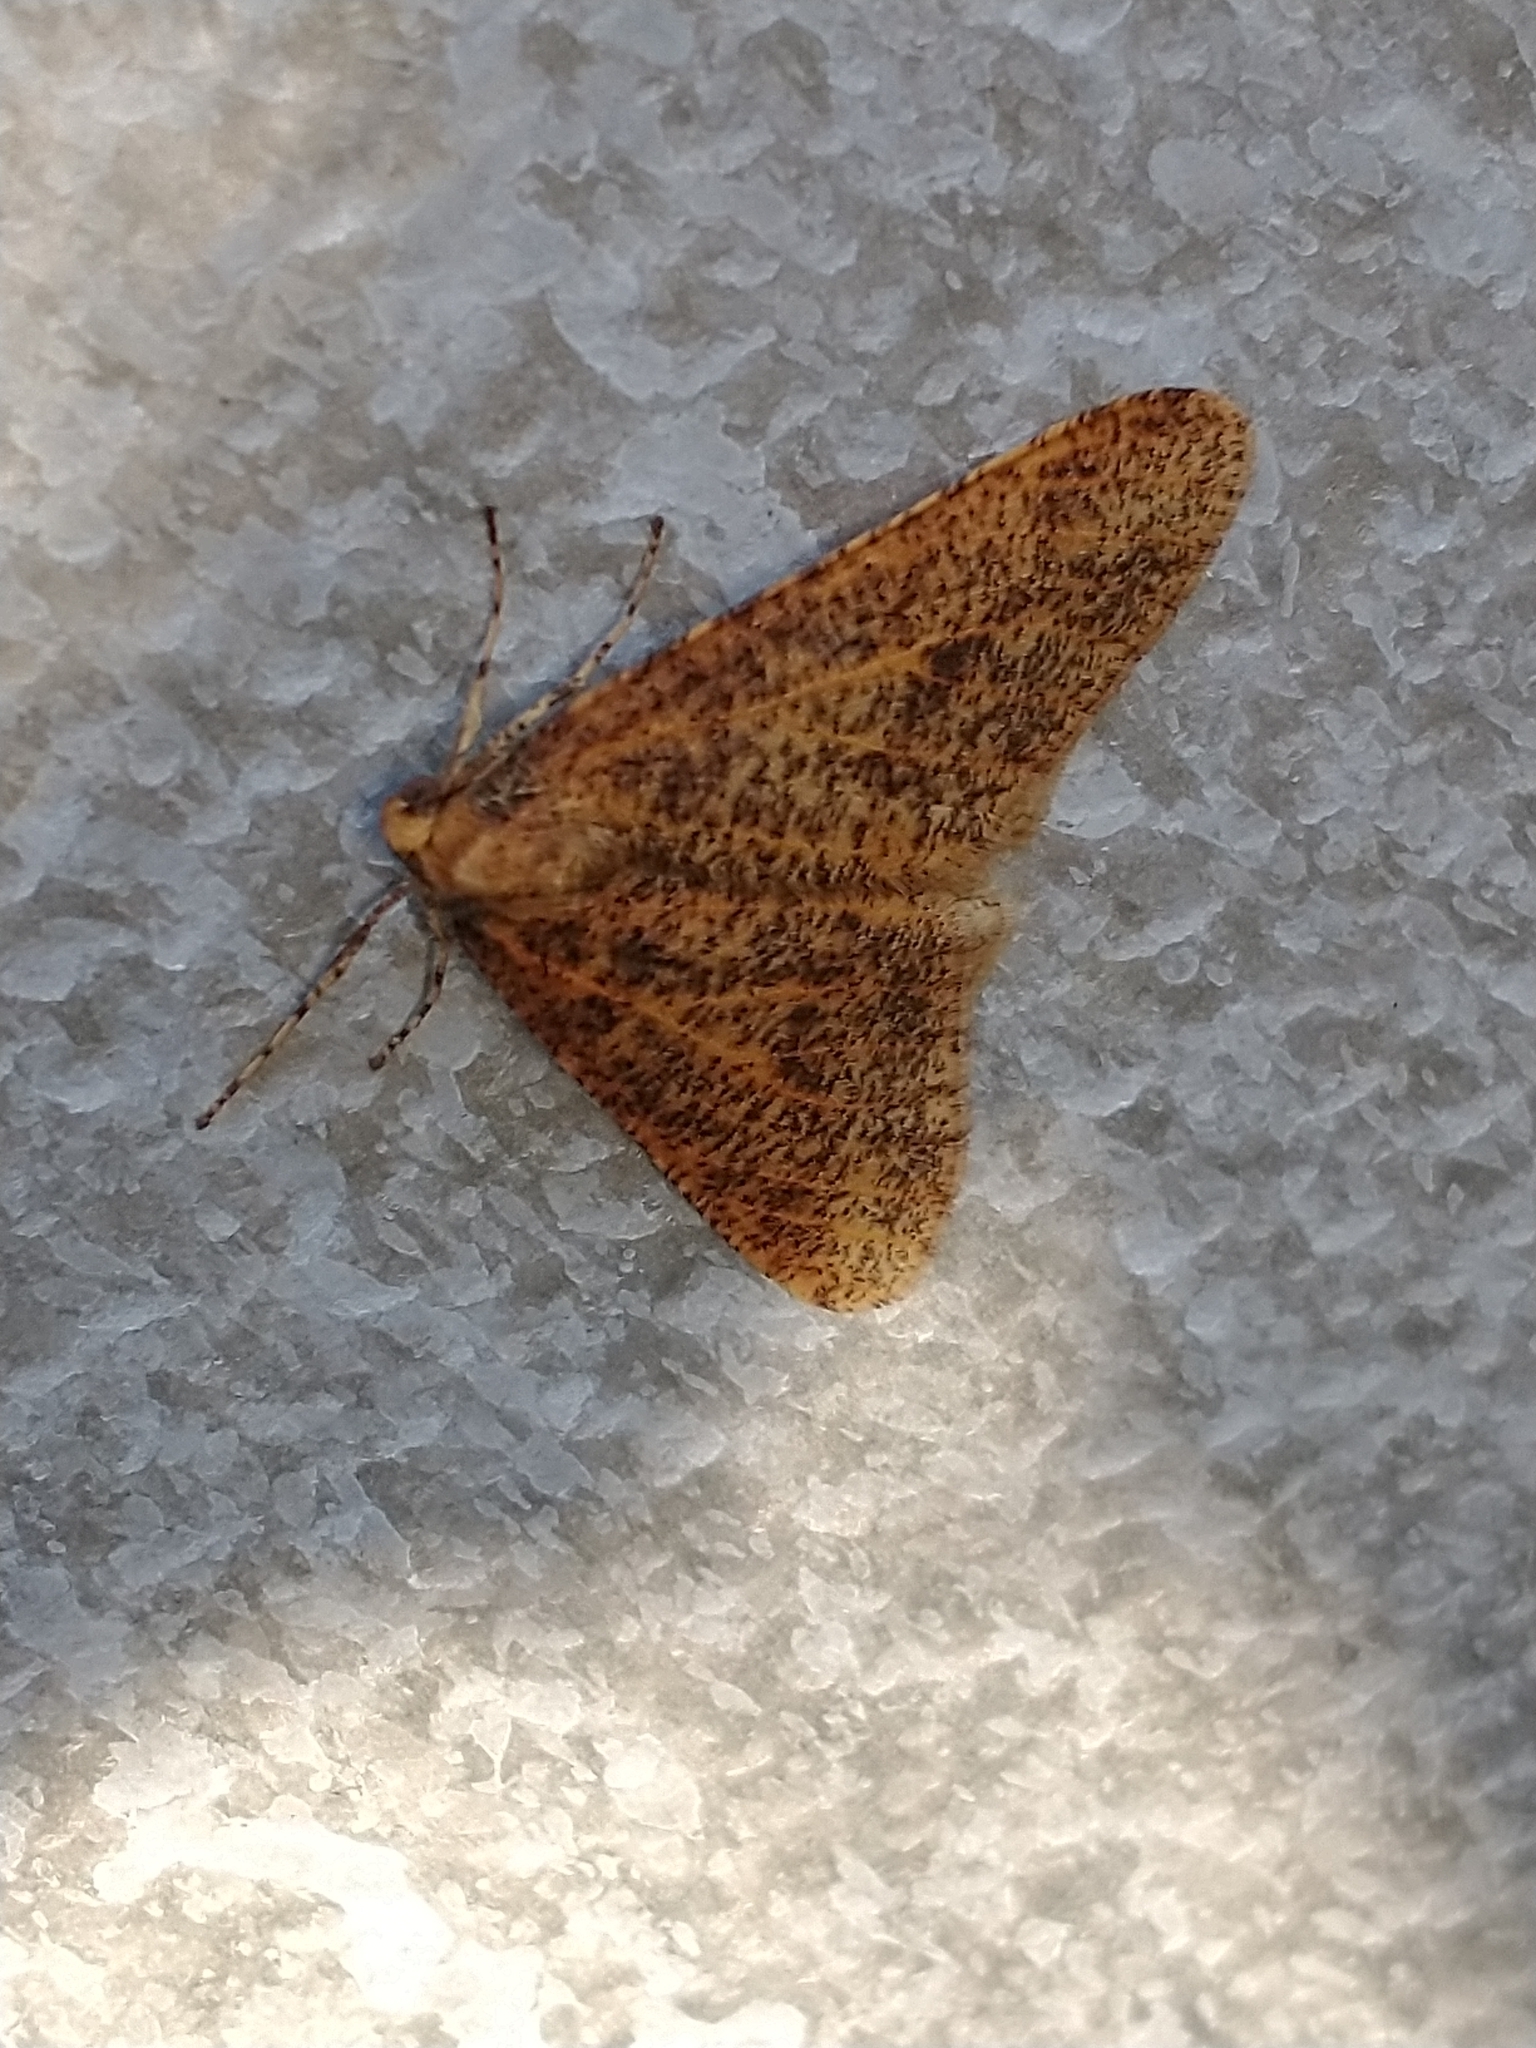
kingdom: Animalia
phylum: Arthropoda
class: Insecta
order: Lepidoptera
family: Geometridae
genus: Erannis
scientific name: Erannis defoliaria
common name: Mottled umber
